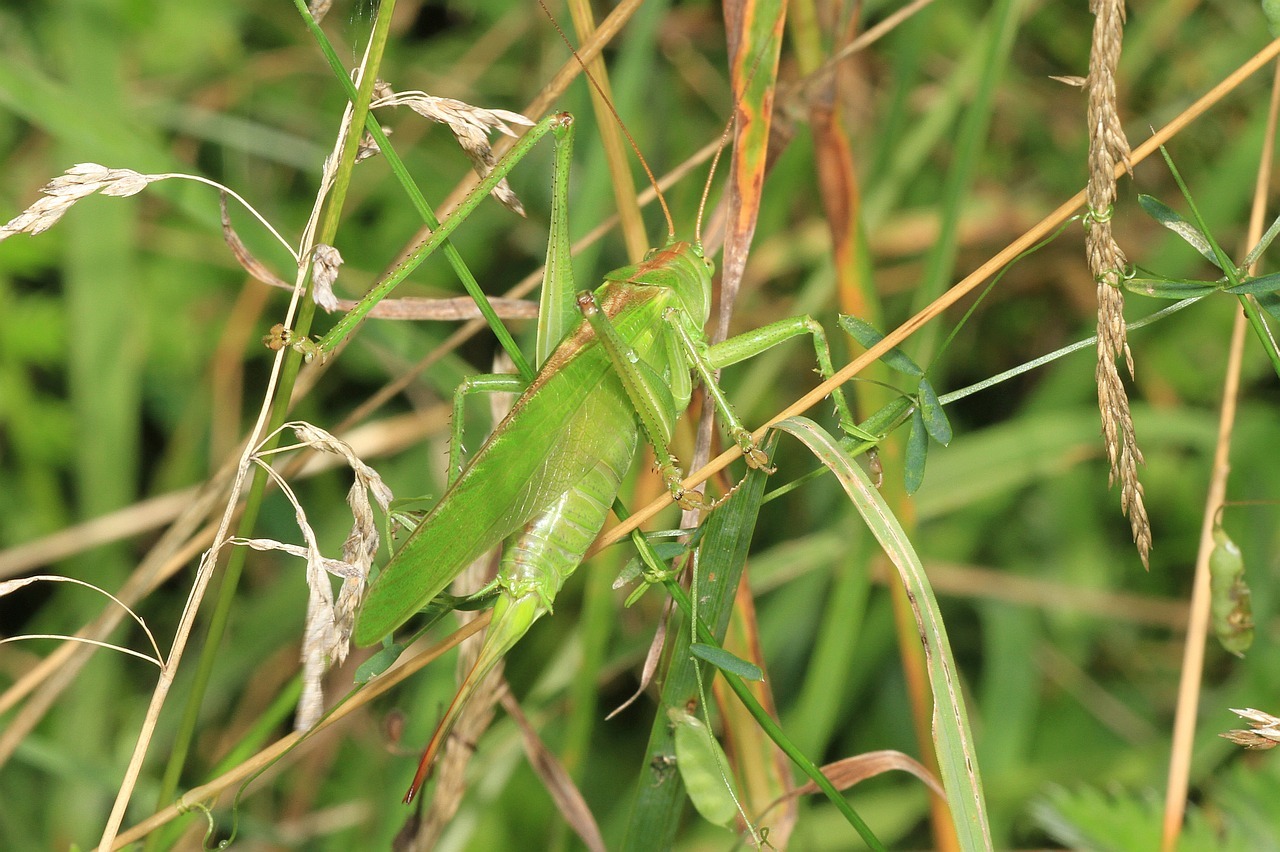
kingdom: Animalia
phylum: Arthropoda
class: Insecta
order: Orthoptera
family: Tettigoniidae
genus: Tettigonia
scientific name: Tettigonia viridissima
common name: Great green bush-cricket
